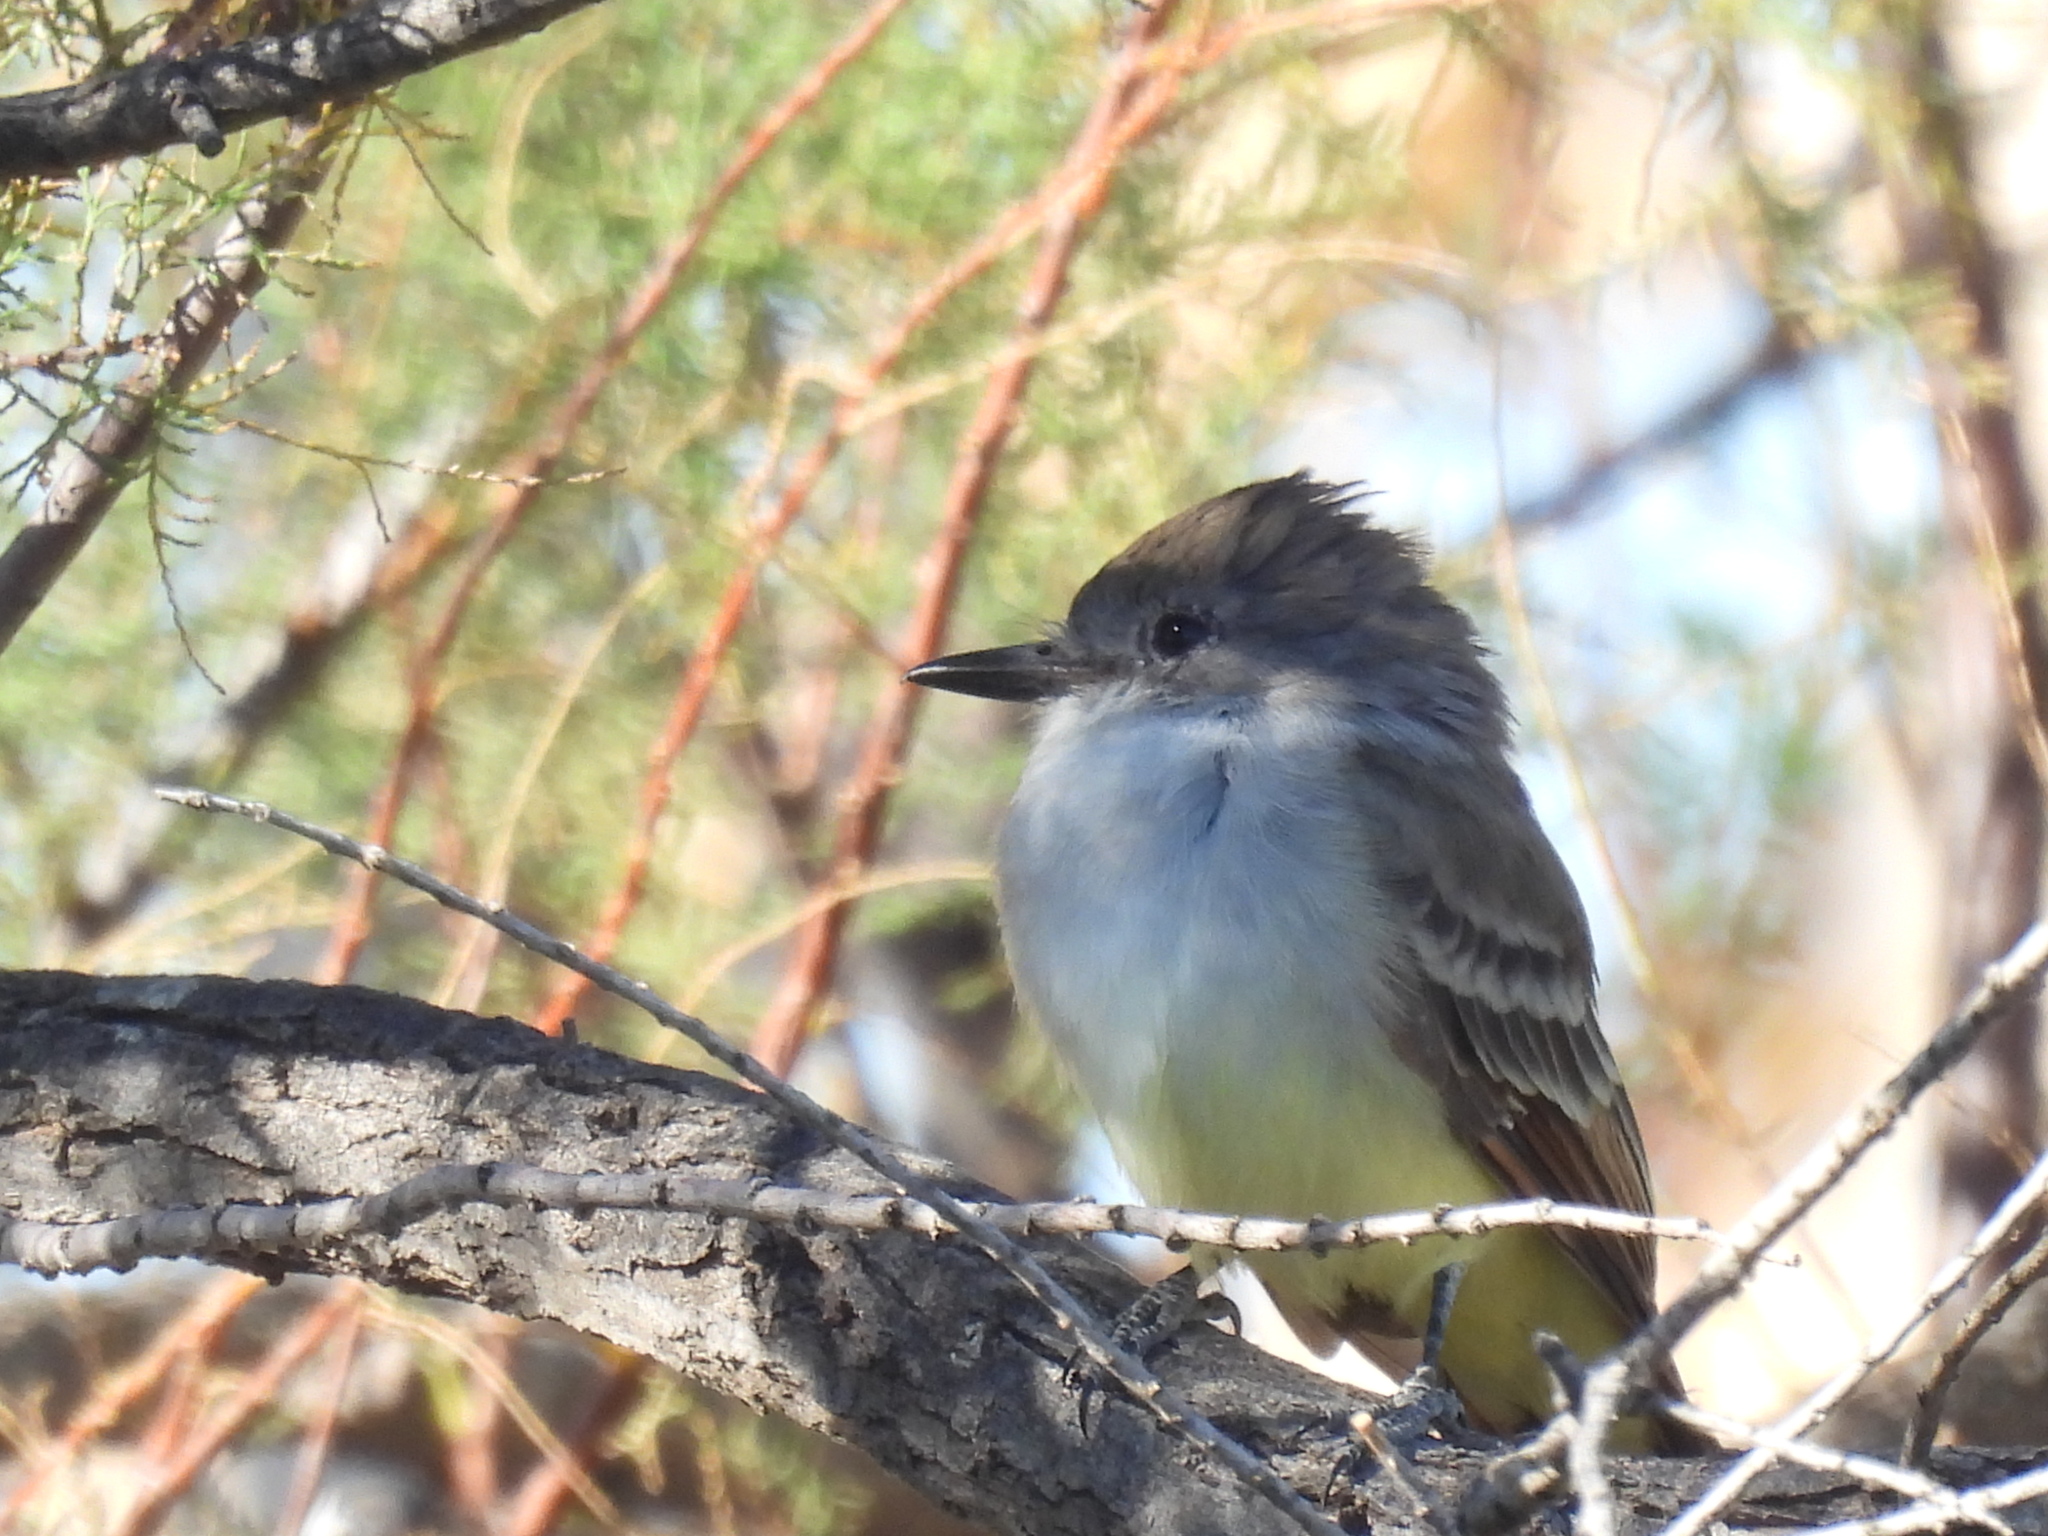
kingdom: Animalia
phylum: Chordata
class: Aves
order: Passeriformes
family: Tyrannidae
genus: Myiarchus
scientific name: Myiarchus cinerascens
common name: Ash-throated flycatcher
